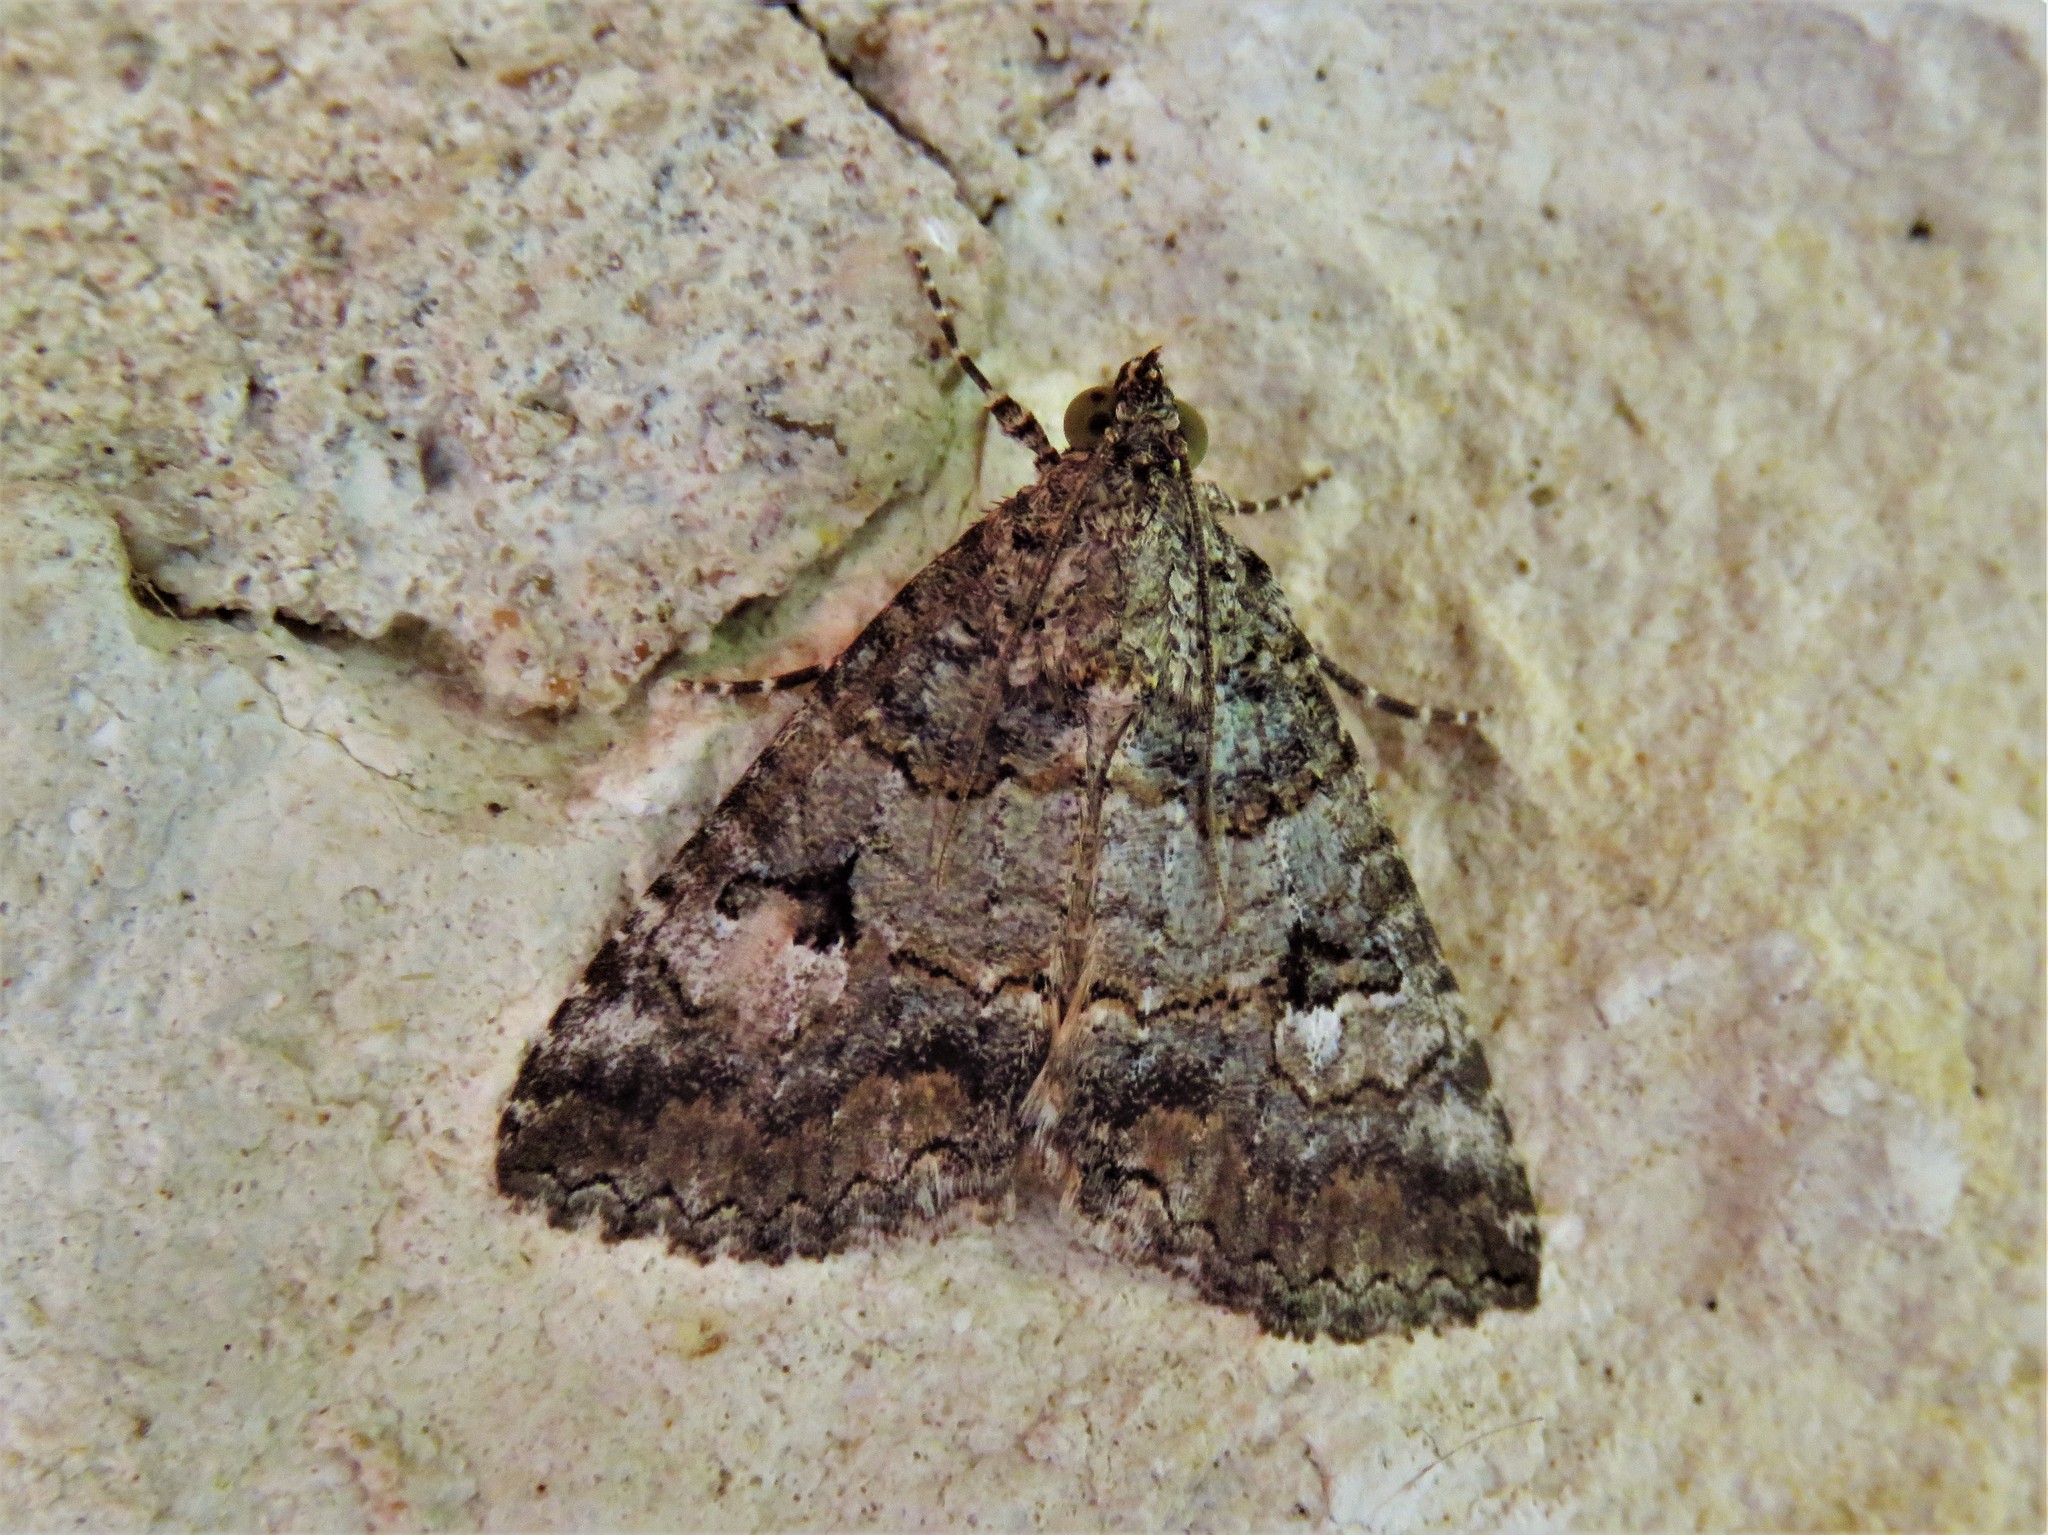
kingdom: Animalia
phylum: Arthropoda
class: Insecta
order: Lepidoptera
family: Erebidae
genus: Eubolina
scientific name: Eubolina impartialis
